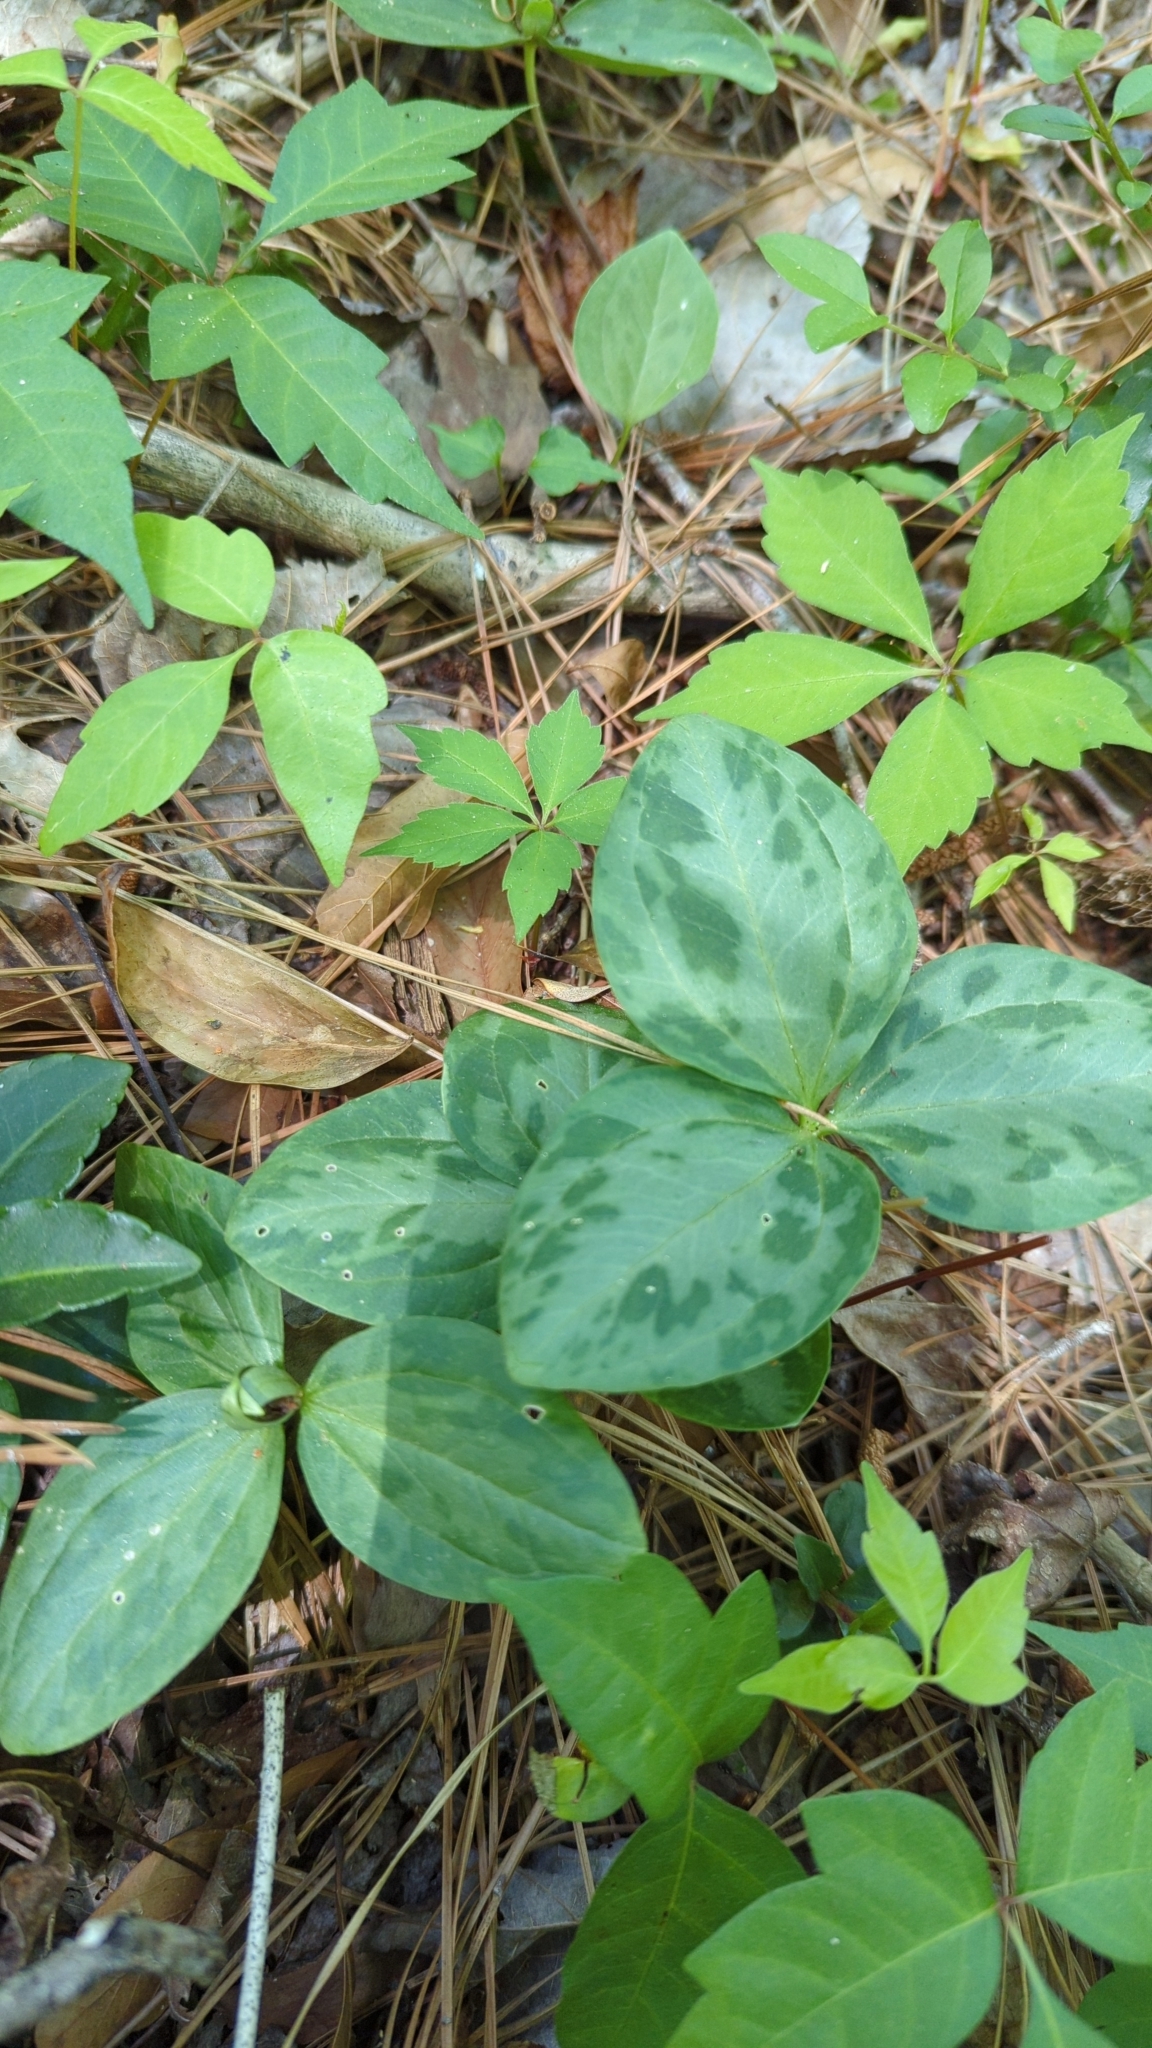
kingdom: Plantae
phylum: Tracheophyta
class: Liliopsida
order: Liliales
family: Melanthiaceae
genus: Trillium
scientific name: Trillium foetidissimum
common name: Mississippi river trillium
